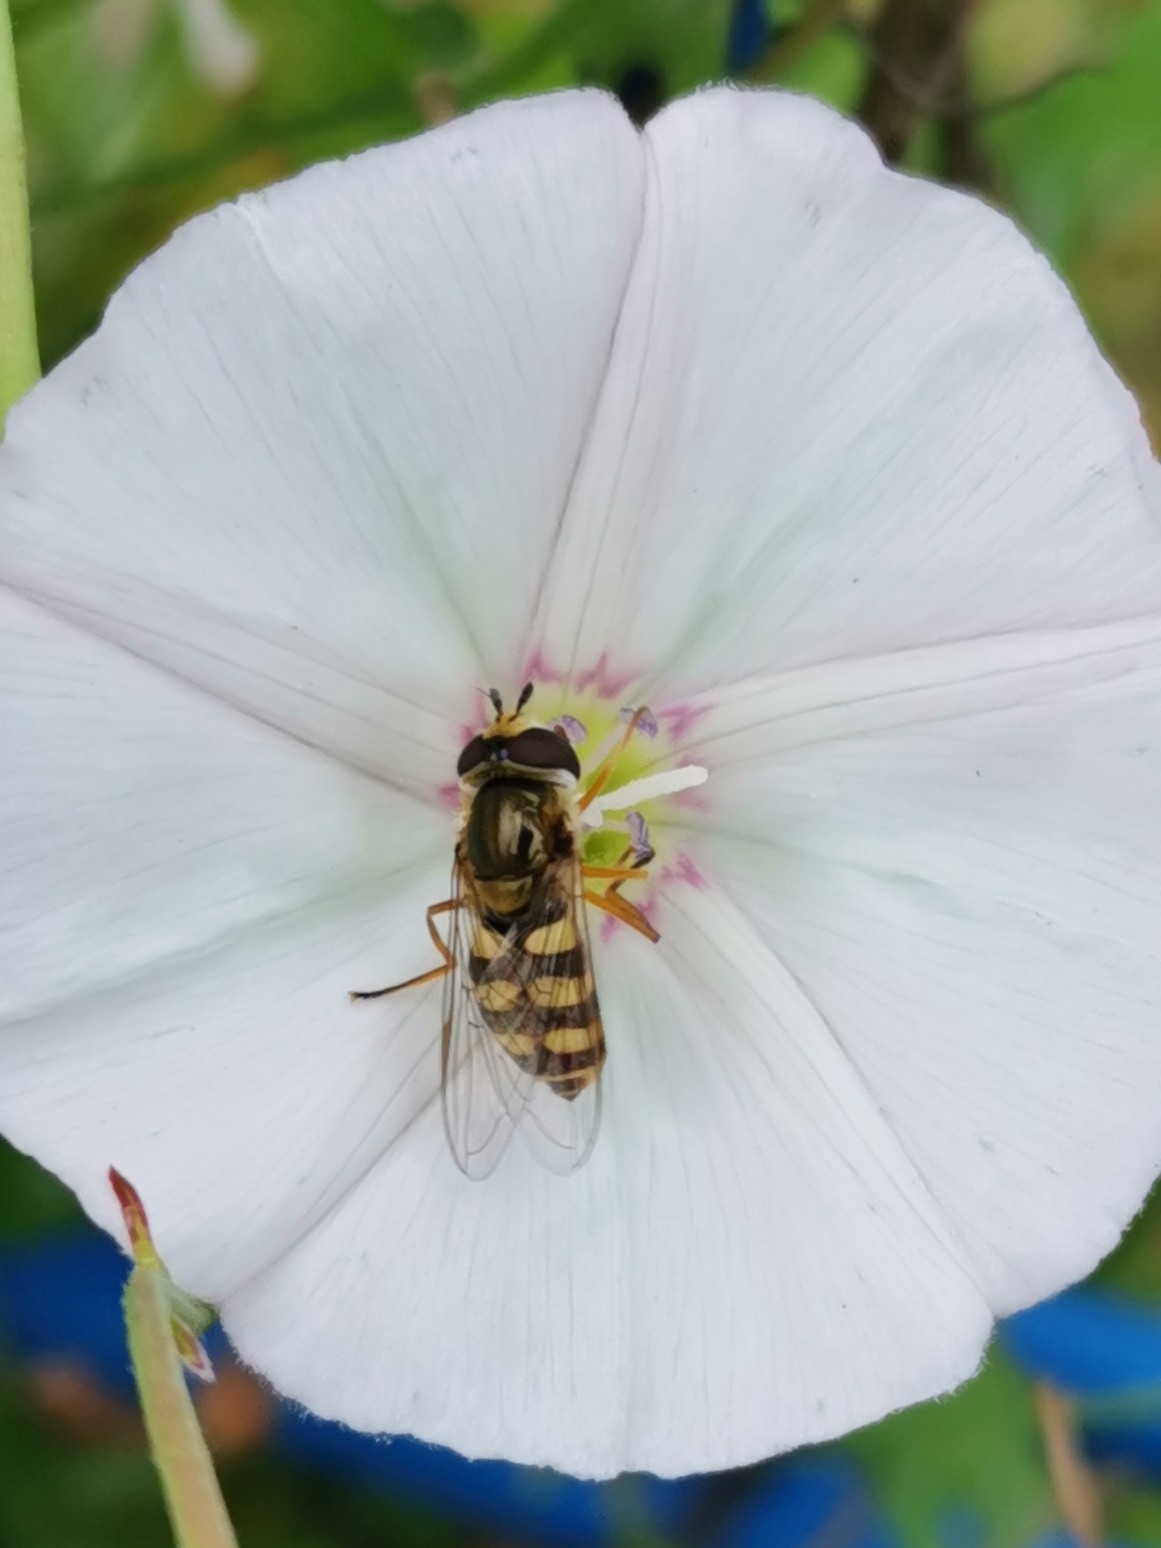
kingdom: Animalia
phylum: Arthropoda
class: Insecta
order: Diptera
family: Syrphidae
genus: Eupeodes
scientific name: Eupeodes corollae
